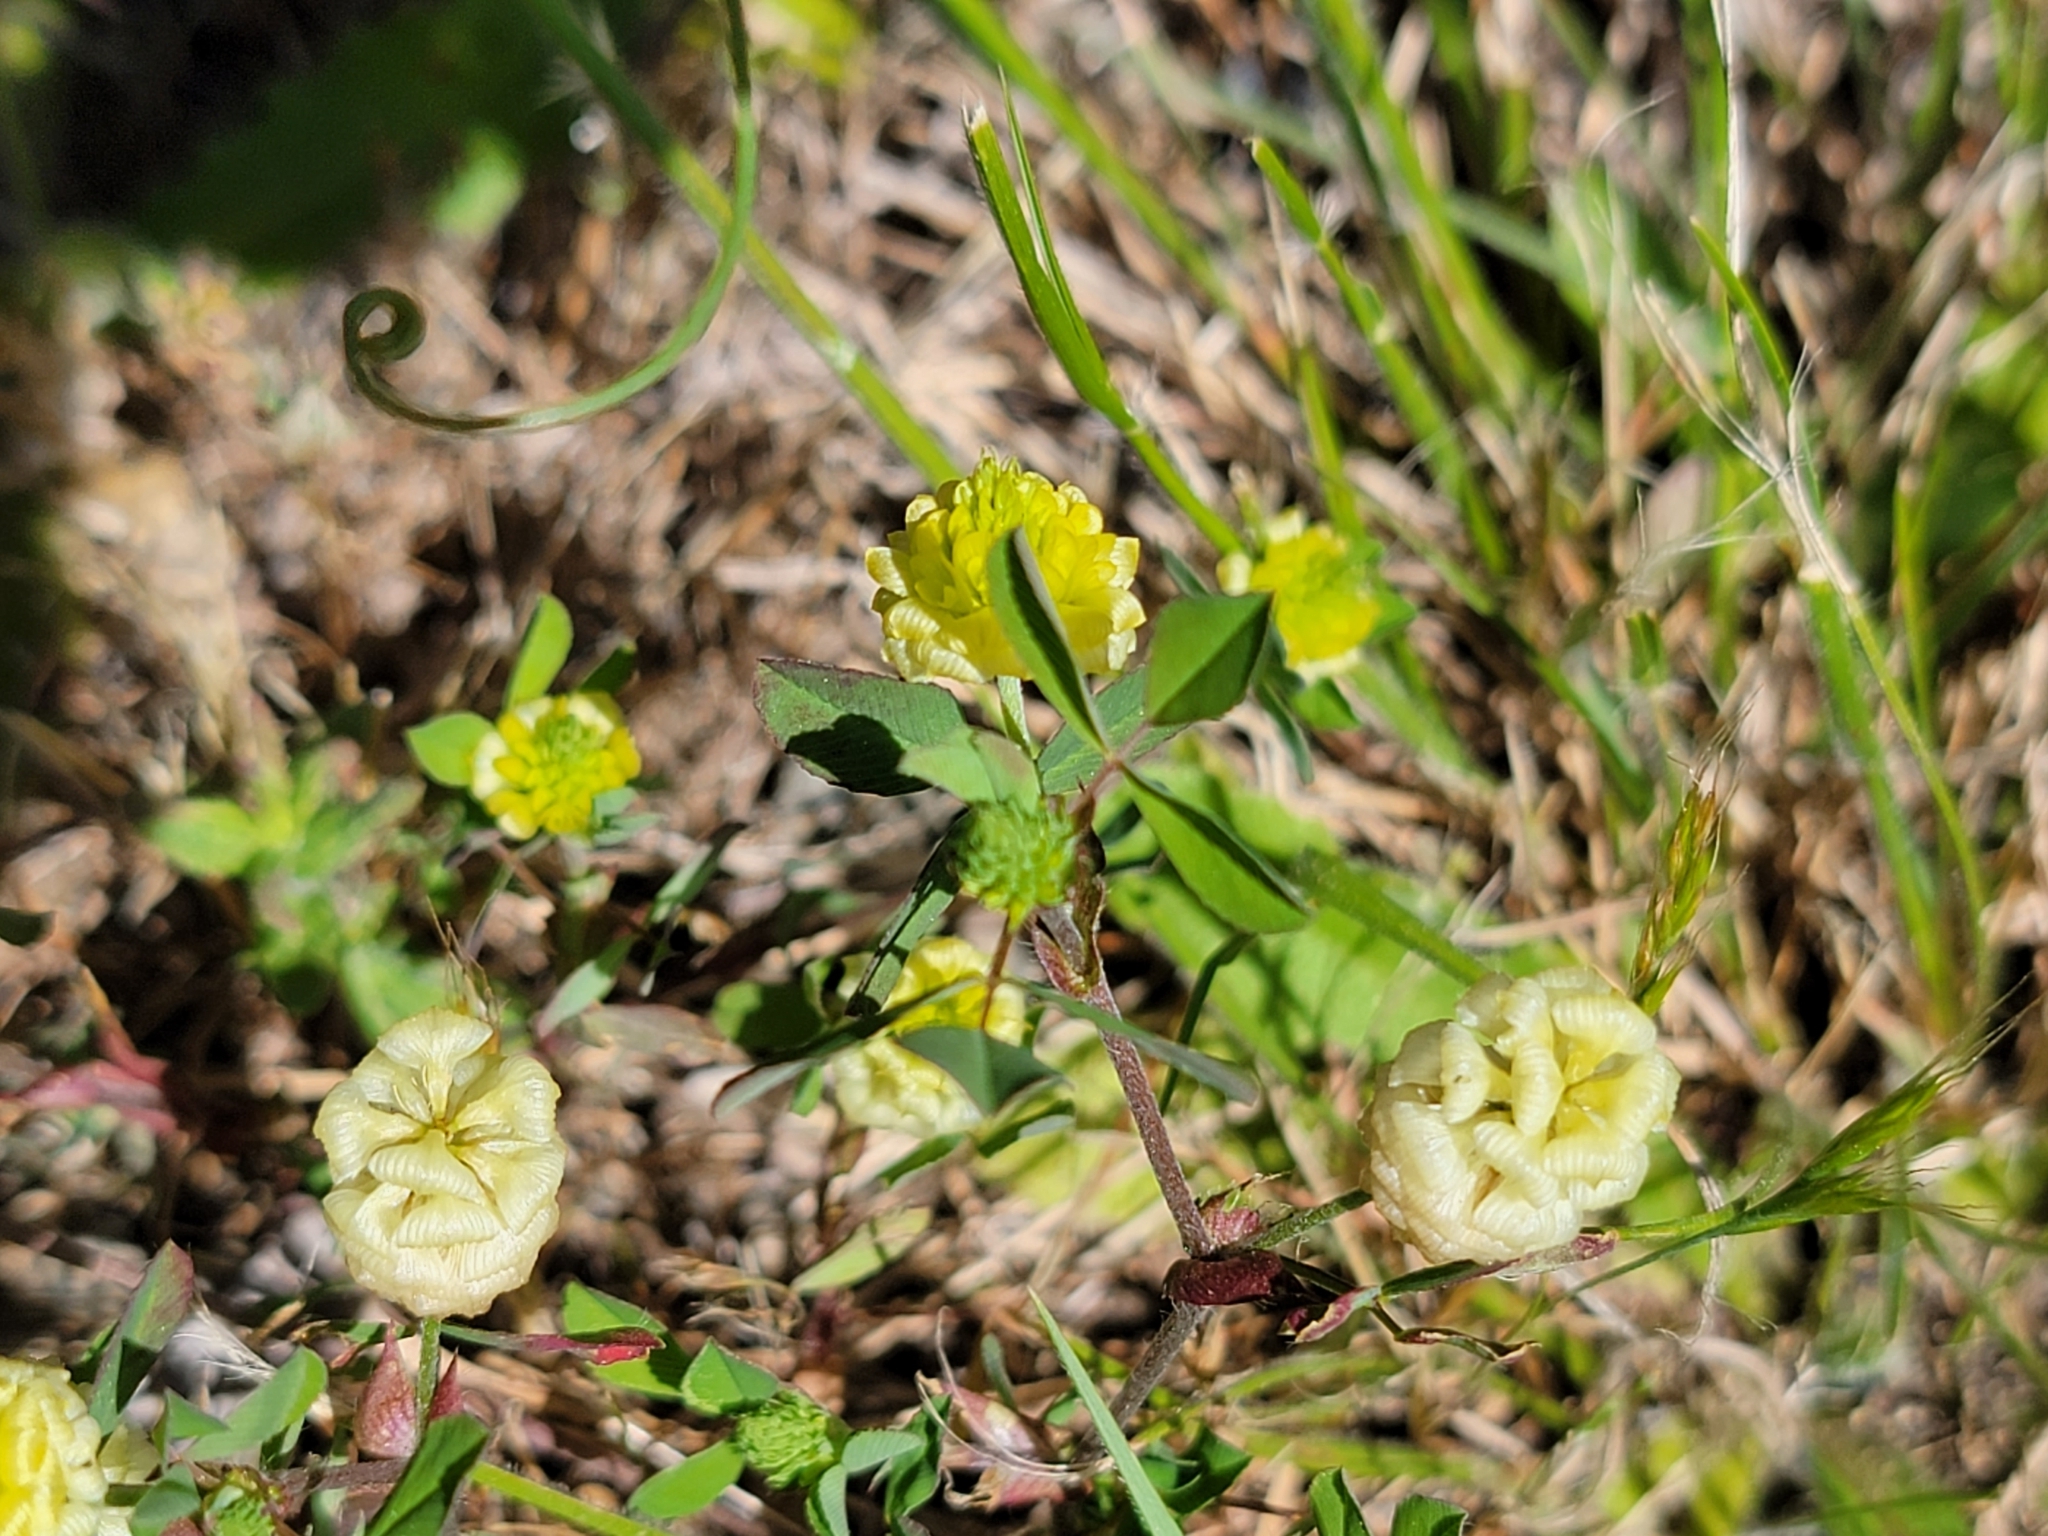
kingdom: Plantae
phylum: Tracheophyta
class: Magnoliopsida
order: Fabales
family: Fabaceae
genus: Trifolium
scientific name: Trifolium campestre
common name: Field clover
